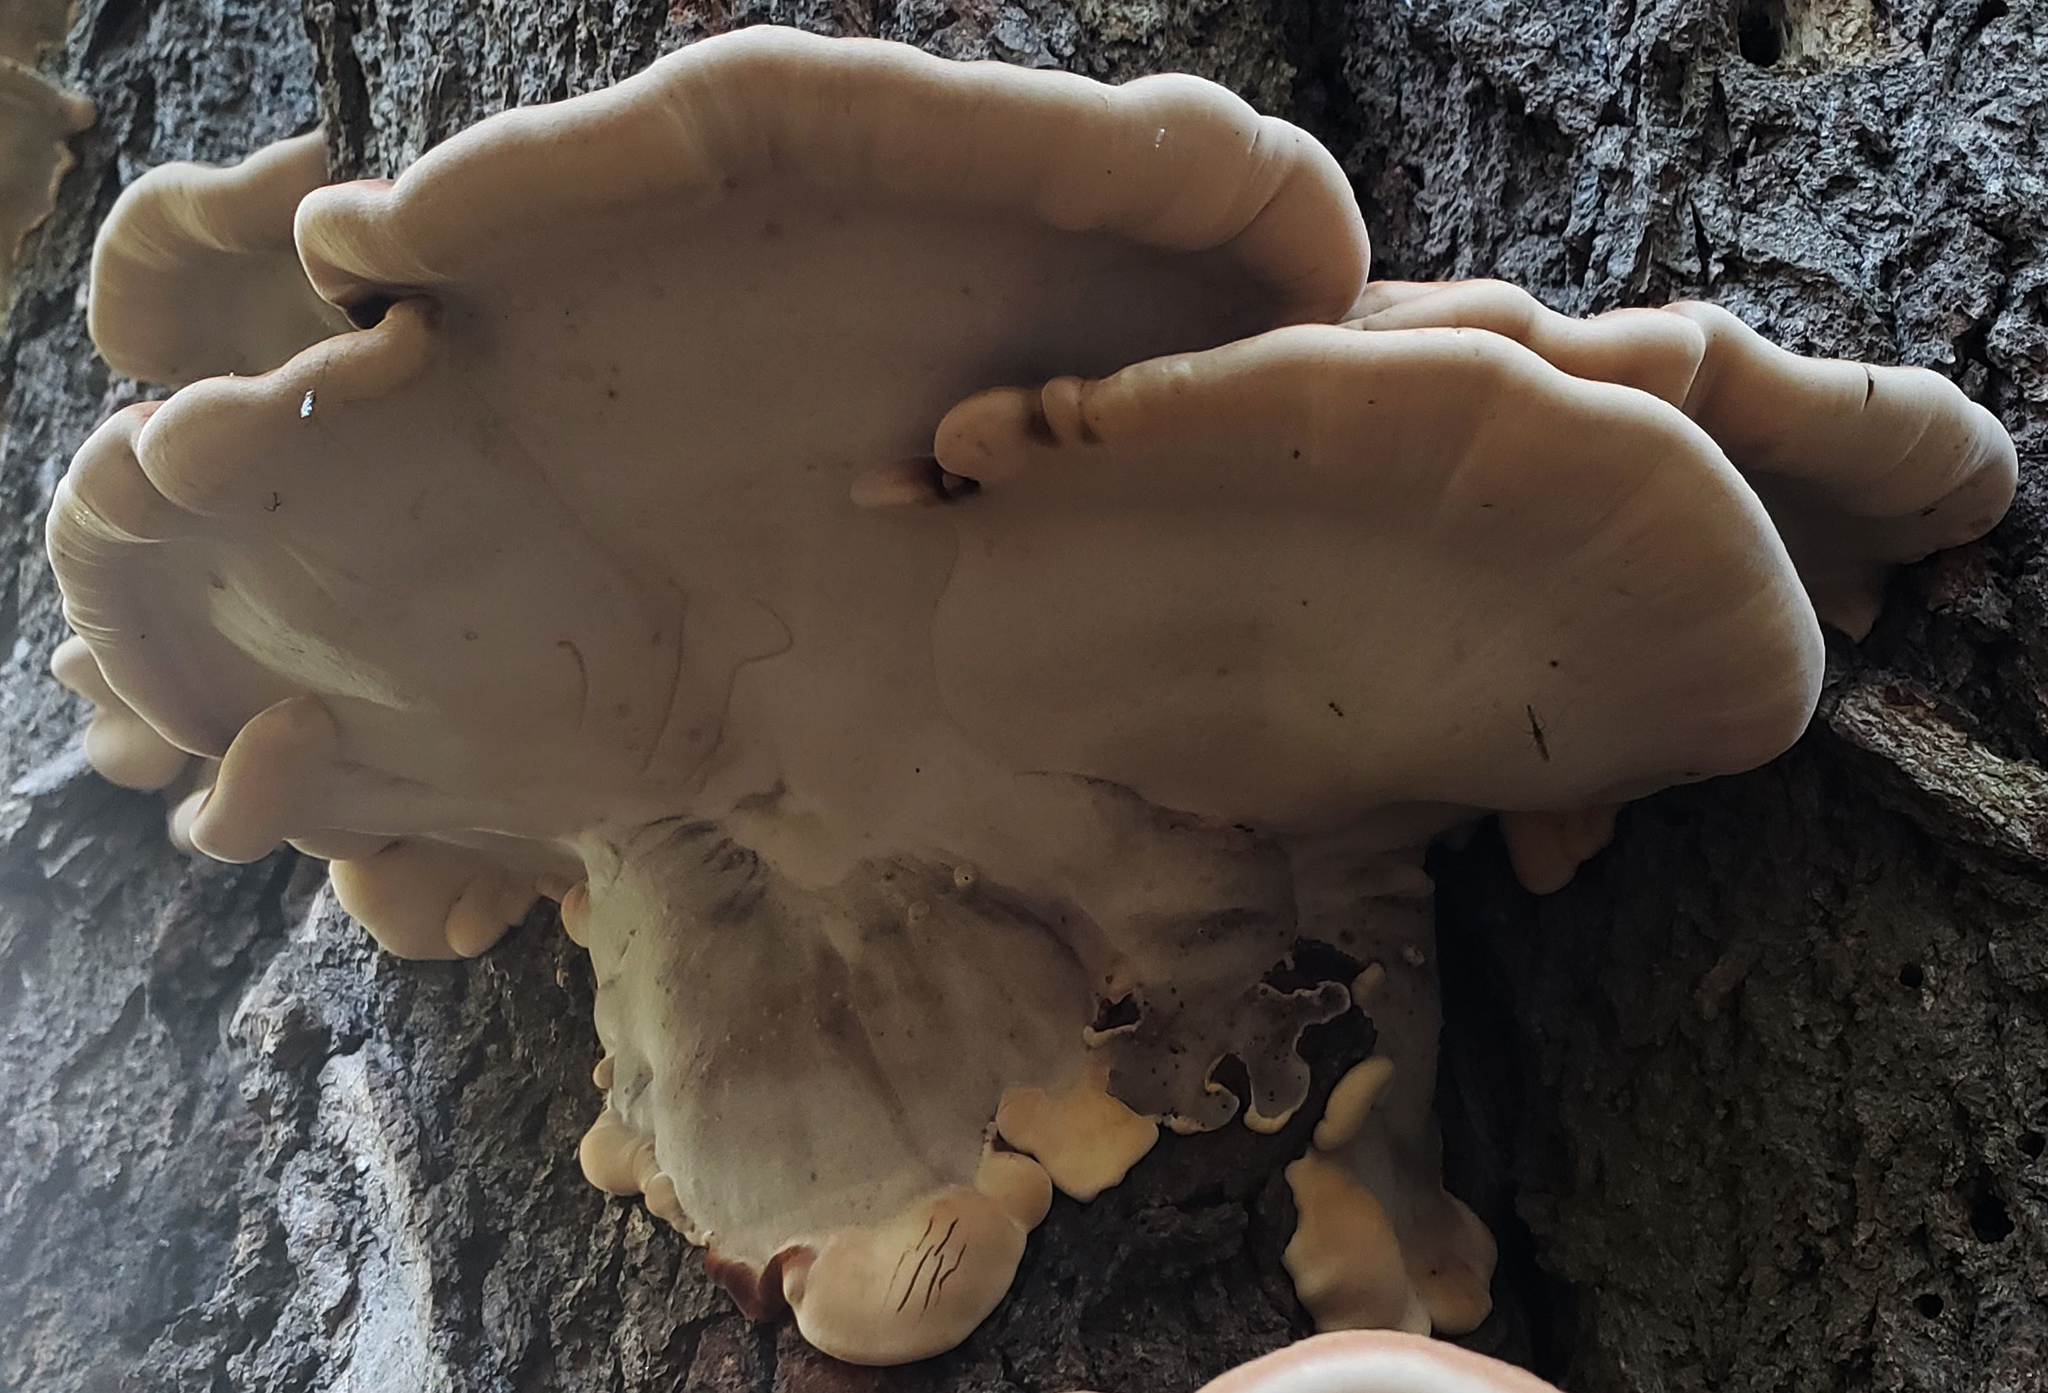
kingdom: Fungi
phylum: Basidiomycota
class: Agaricomycetes
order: Polyporales
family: Ischnodermataceae
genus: Ischnoderma
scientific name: Ischnoderma resinosum
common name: Resinous polypore
